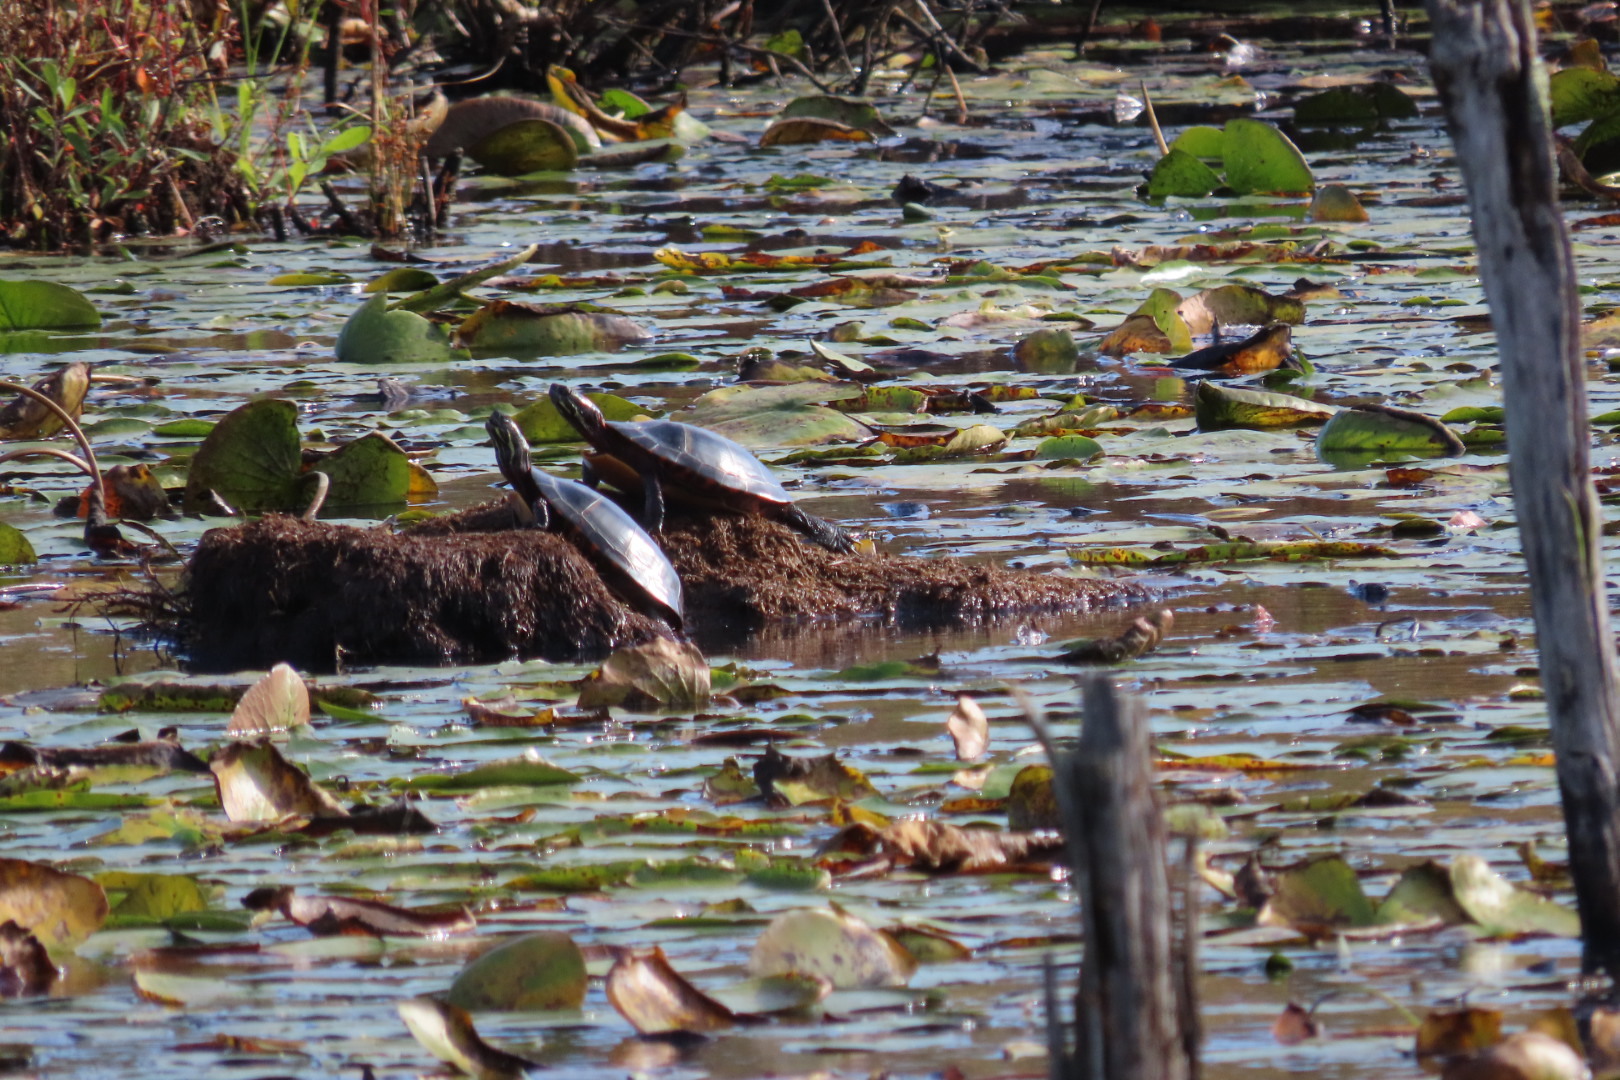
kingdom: Animalia
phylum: Chordata
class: Testudines
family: Emydidae
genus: Chrysemys
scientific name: Chrysemys picta
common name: Painted turtle
